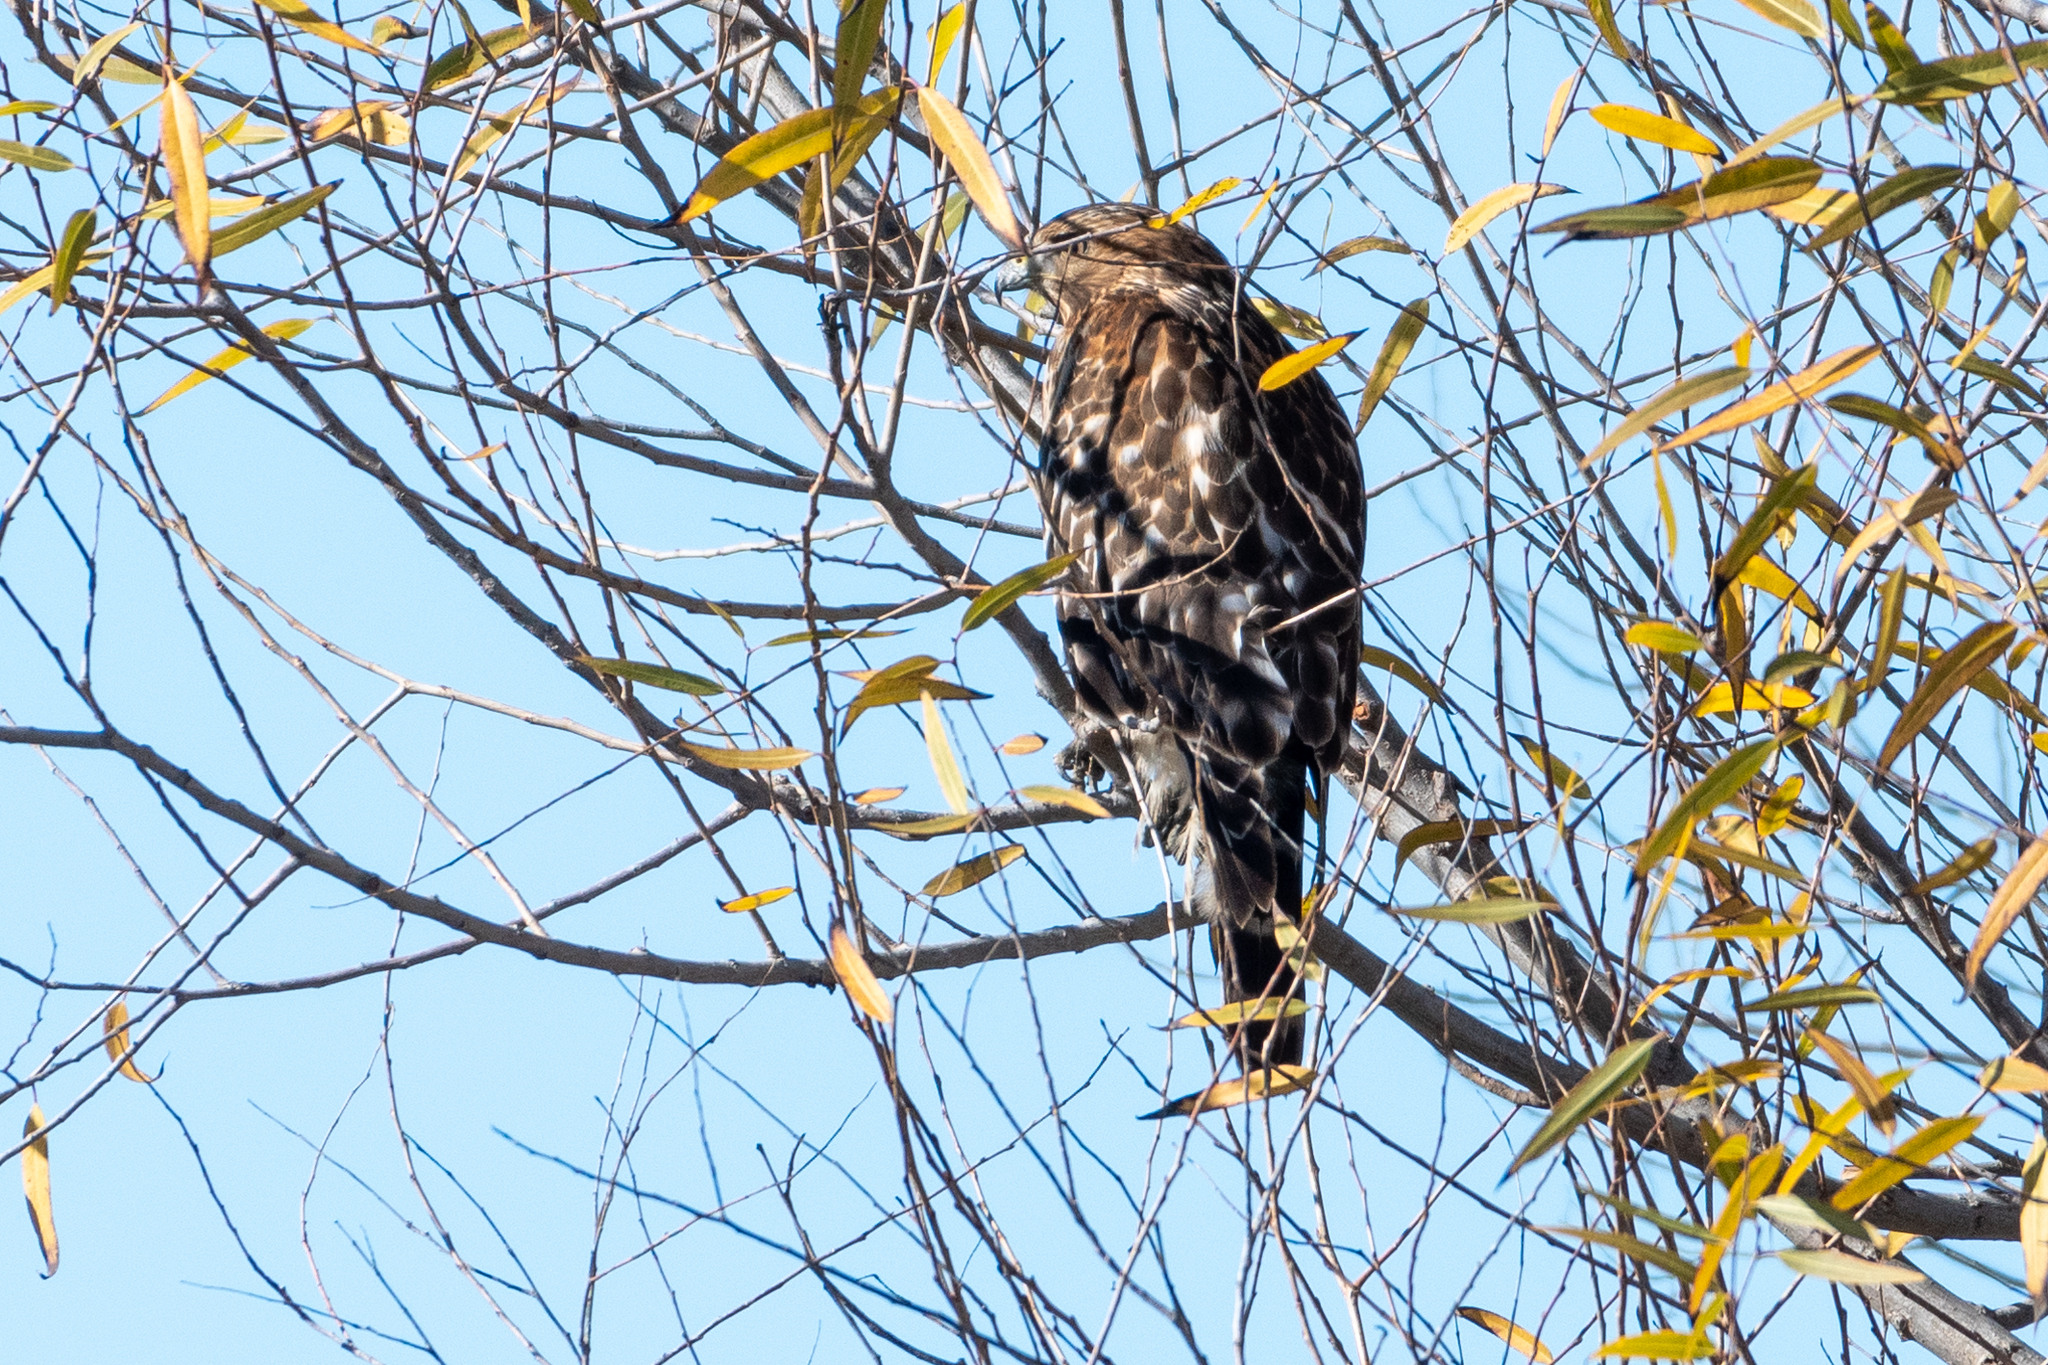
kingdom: Animalia
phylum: Chordata
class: Aves
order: Accipitriformes
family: Accipitridae
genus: Buteo
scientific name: Buteo lineatus
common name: Red-shouldered hawk
